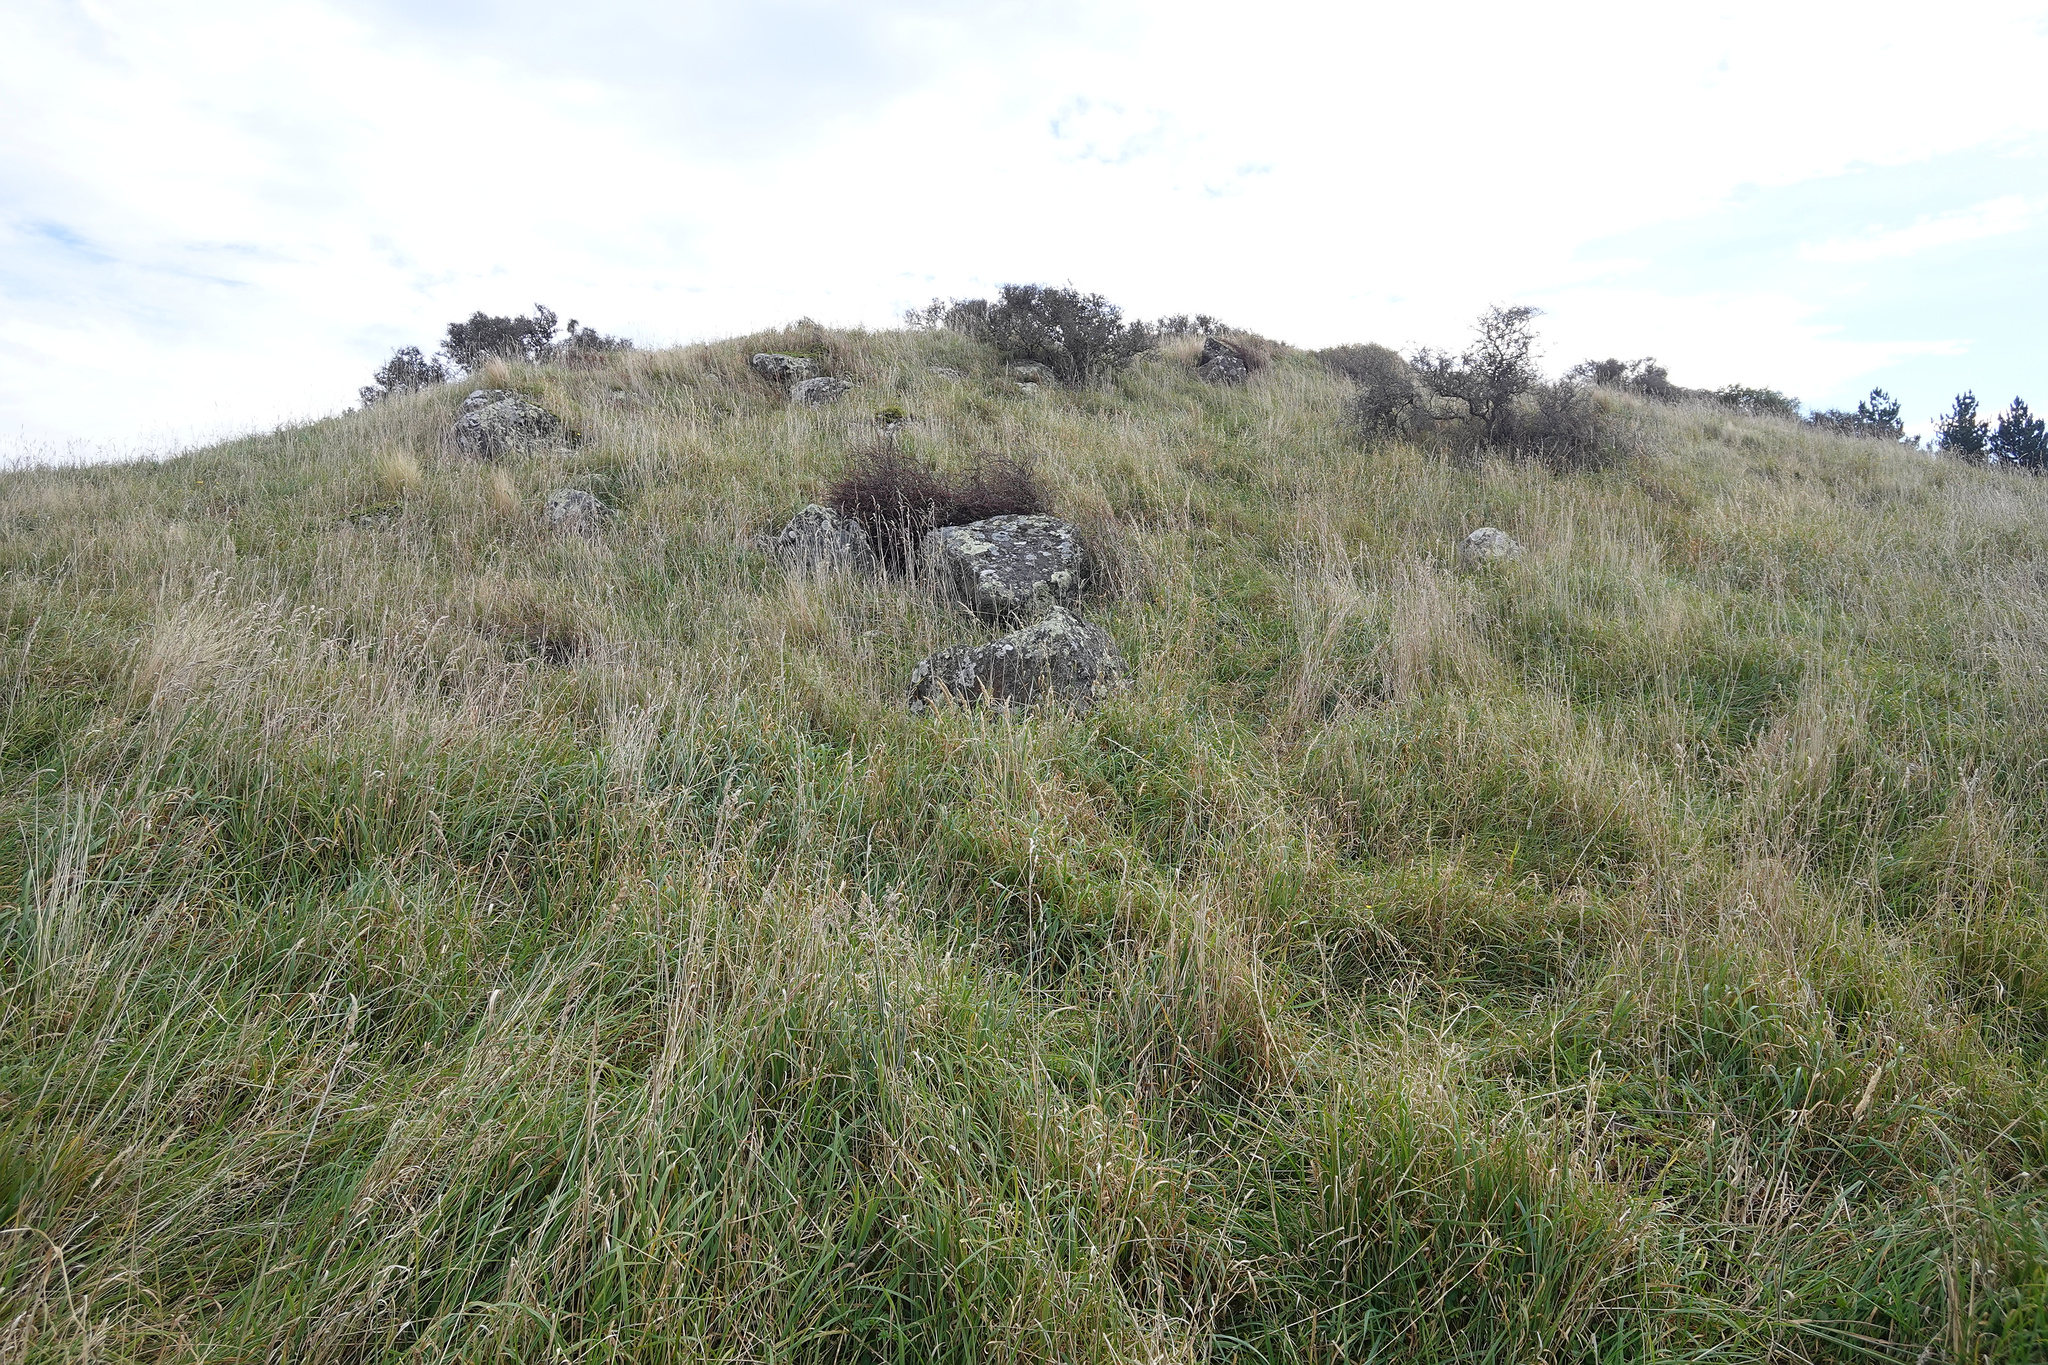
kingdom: Plantae
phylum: Tracheophyta
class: Magnoliopsida
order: Rosales
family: Rhamnaceae
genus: Discaria
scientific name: Discaria toumatou
